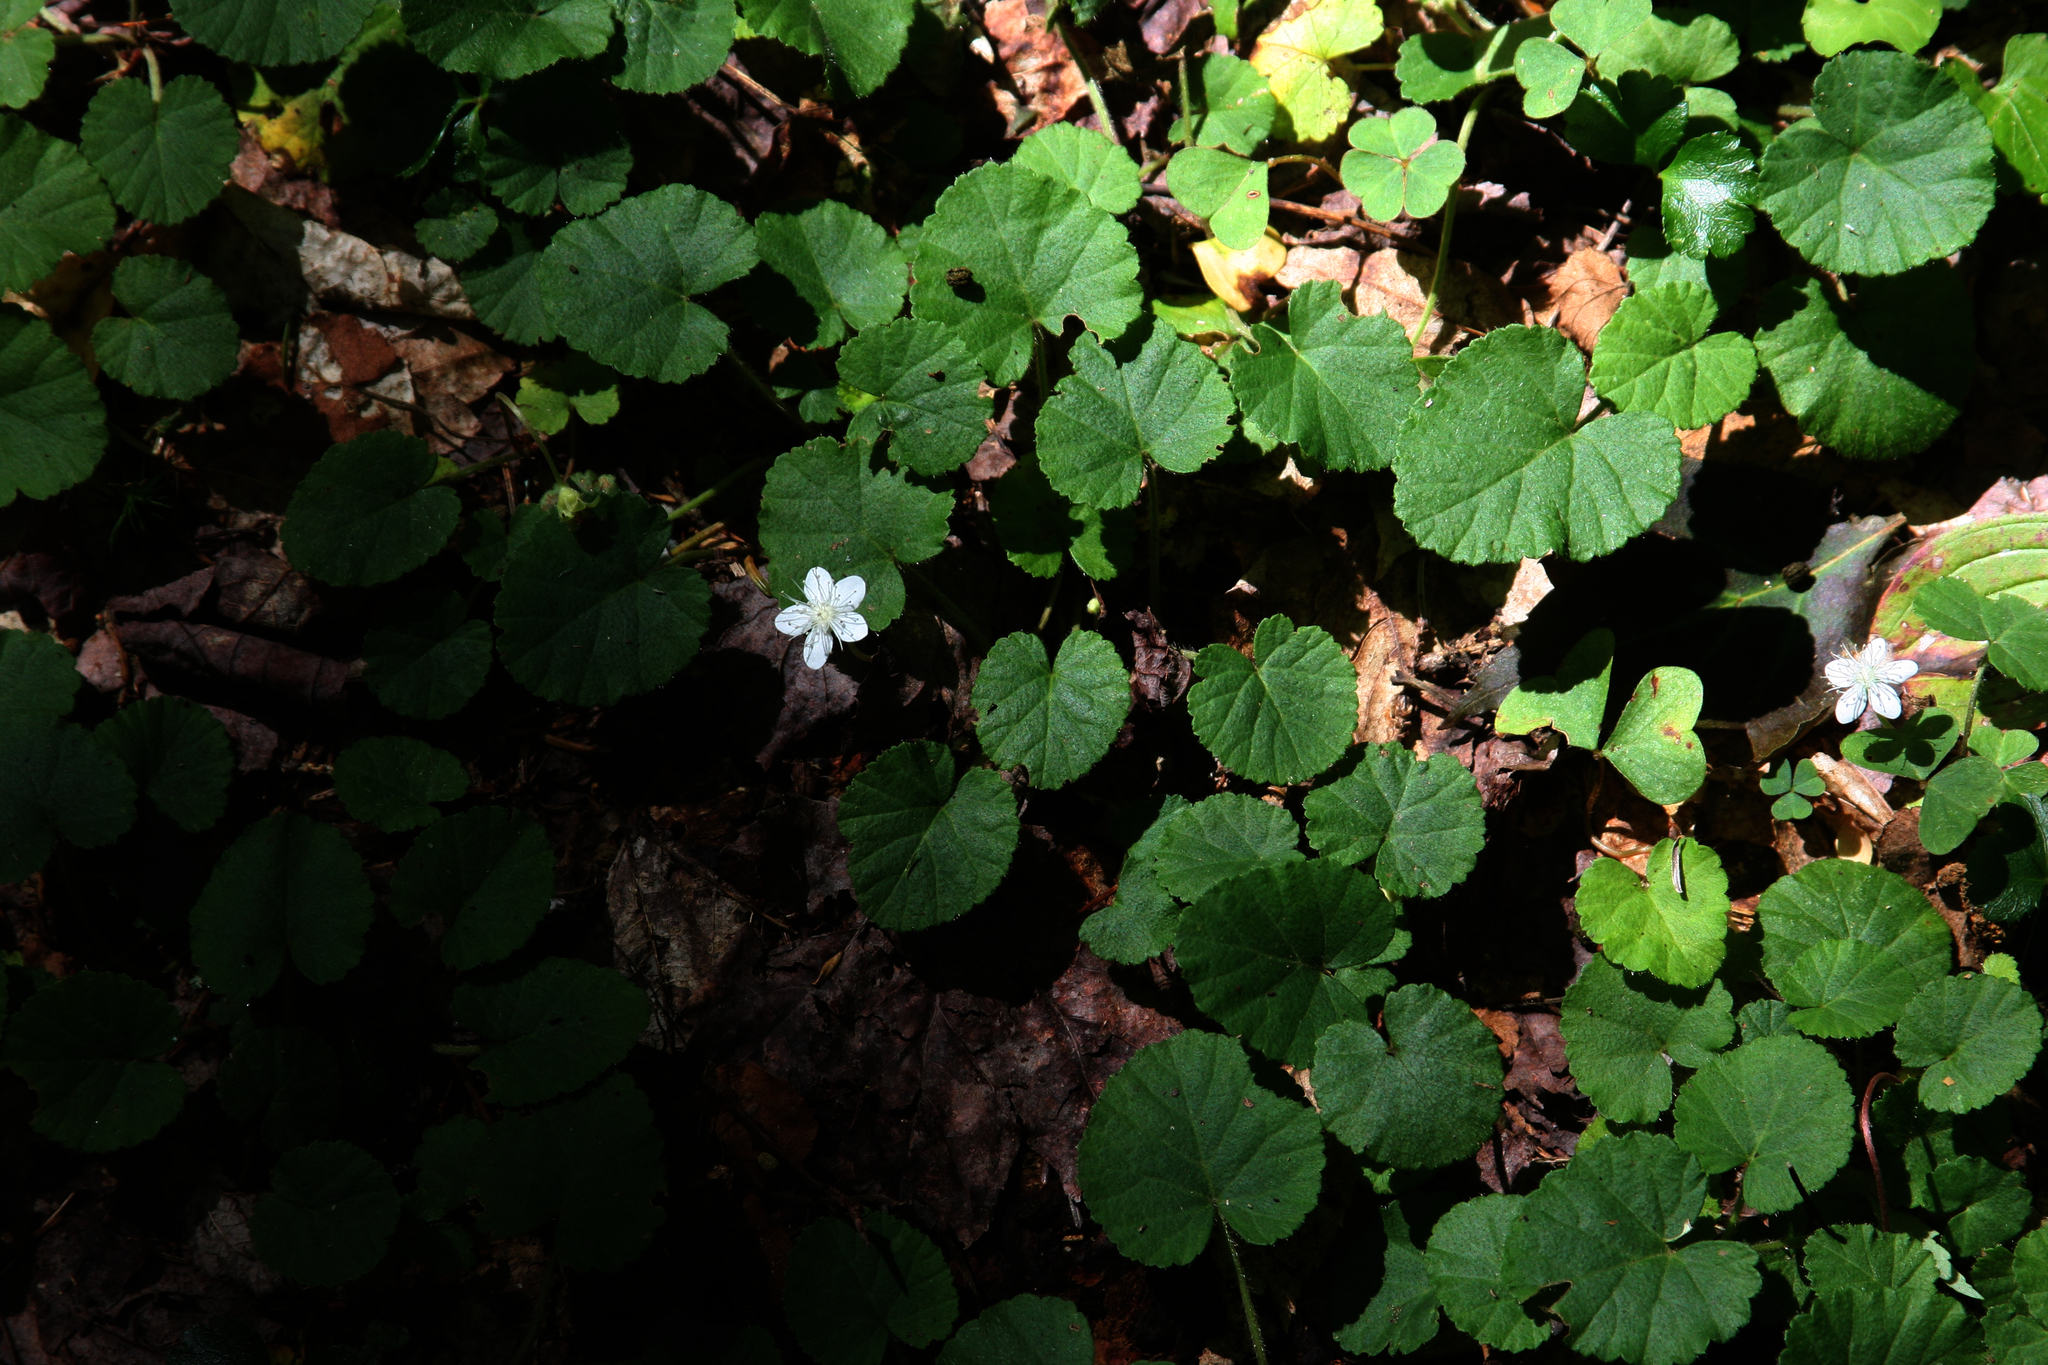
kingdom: Plantae
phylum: Tracheophyta
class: Magnoliopsida
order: Rosales
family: Rosaceae
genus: Dalibarda
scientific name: Dalibarda repens
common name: Dewdrop
